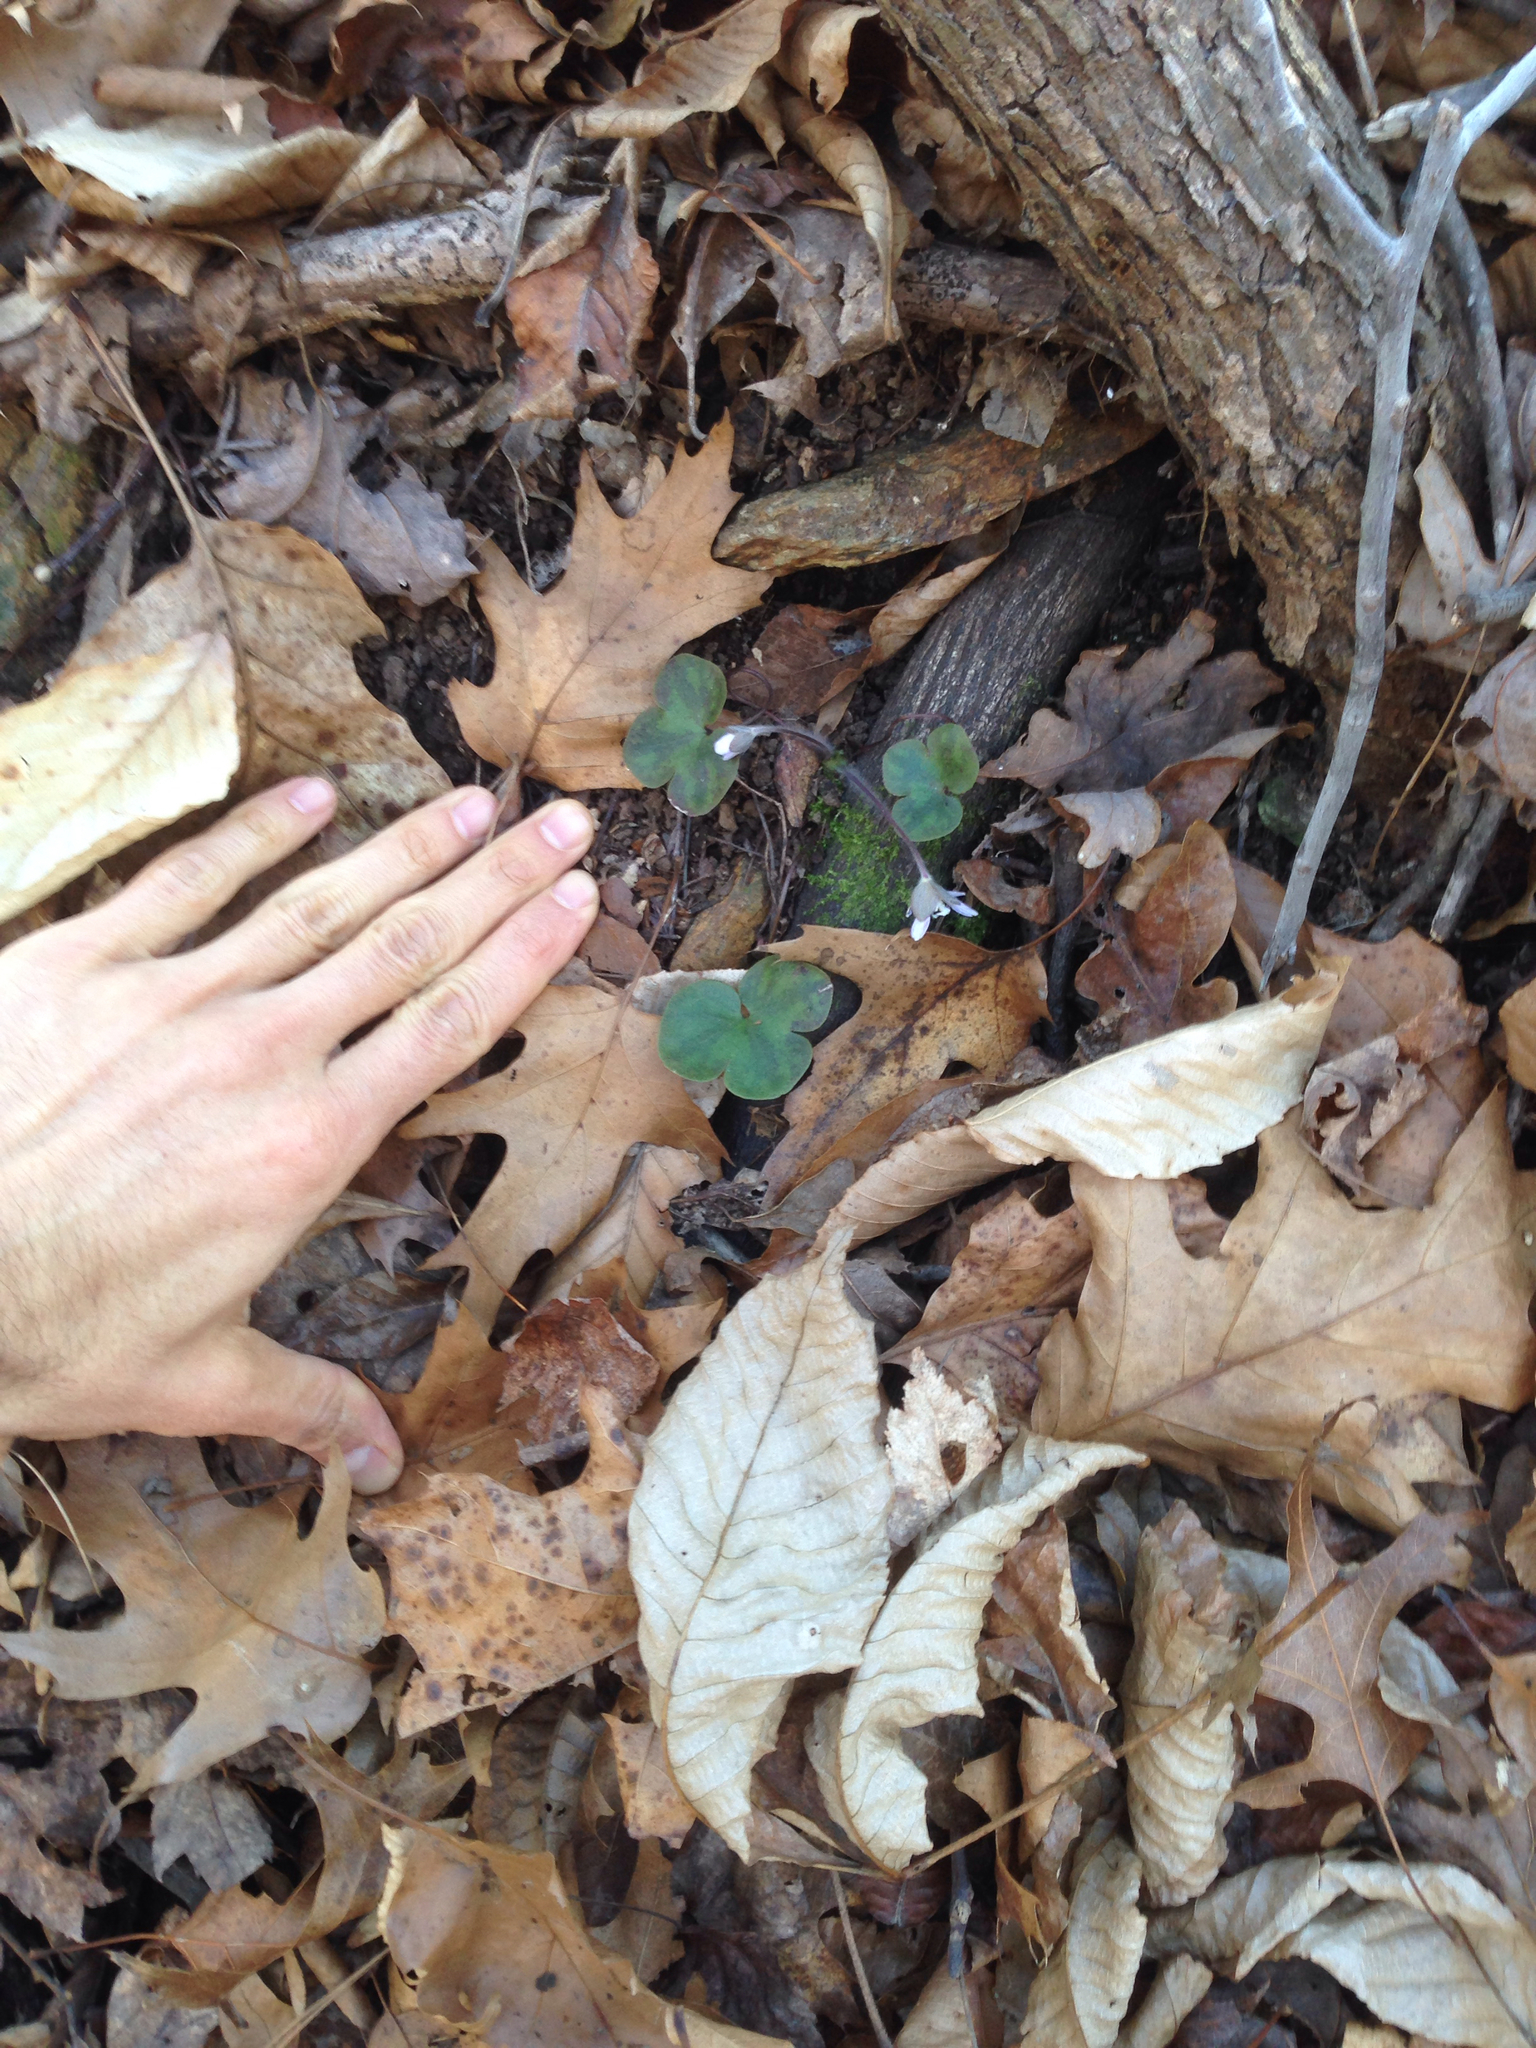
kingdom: Plantae
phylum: Tracheophyta
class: Magnoliopsida
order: Ranunculales
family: Ranunculaceae
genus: Hepatica
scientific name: Hepatica americana
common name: American hepatica
